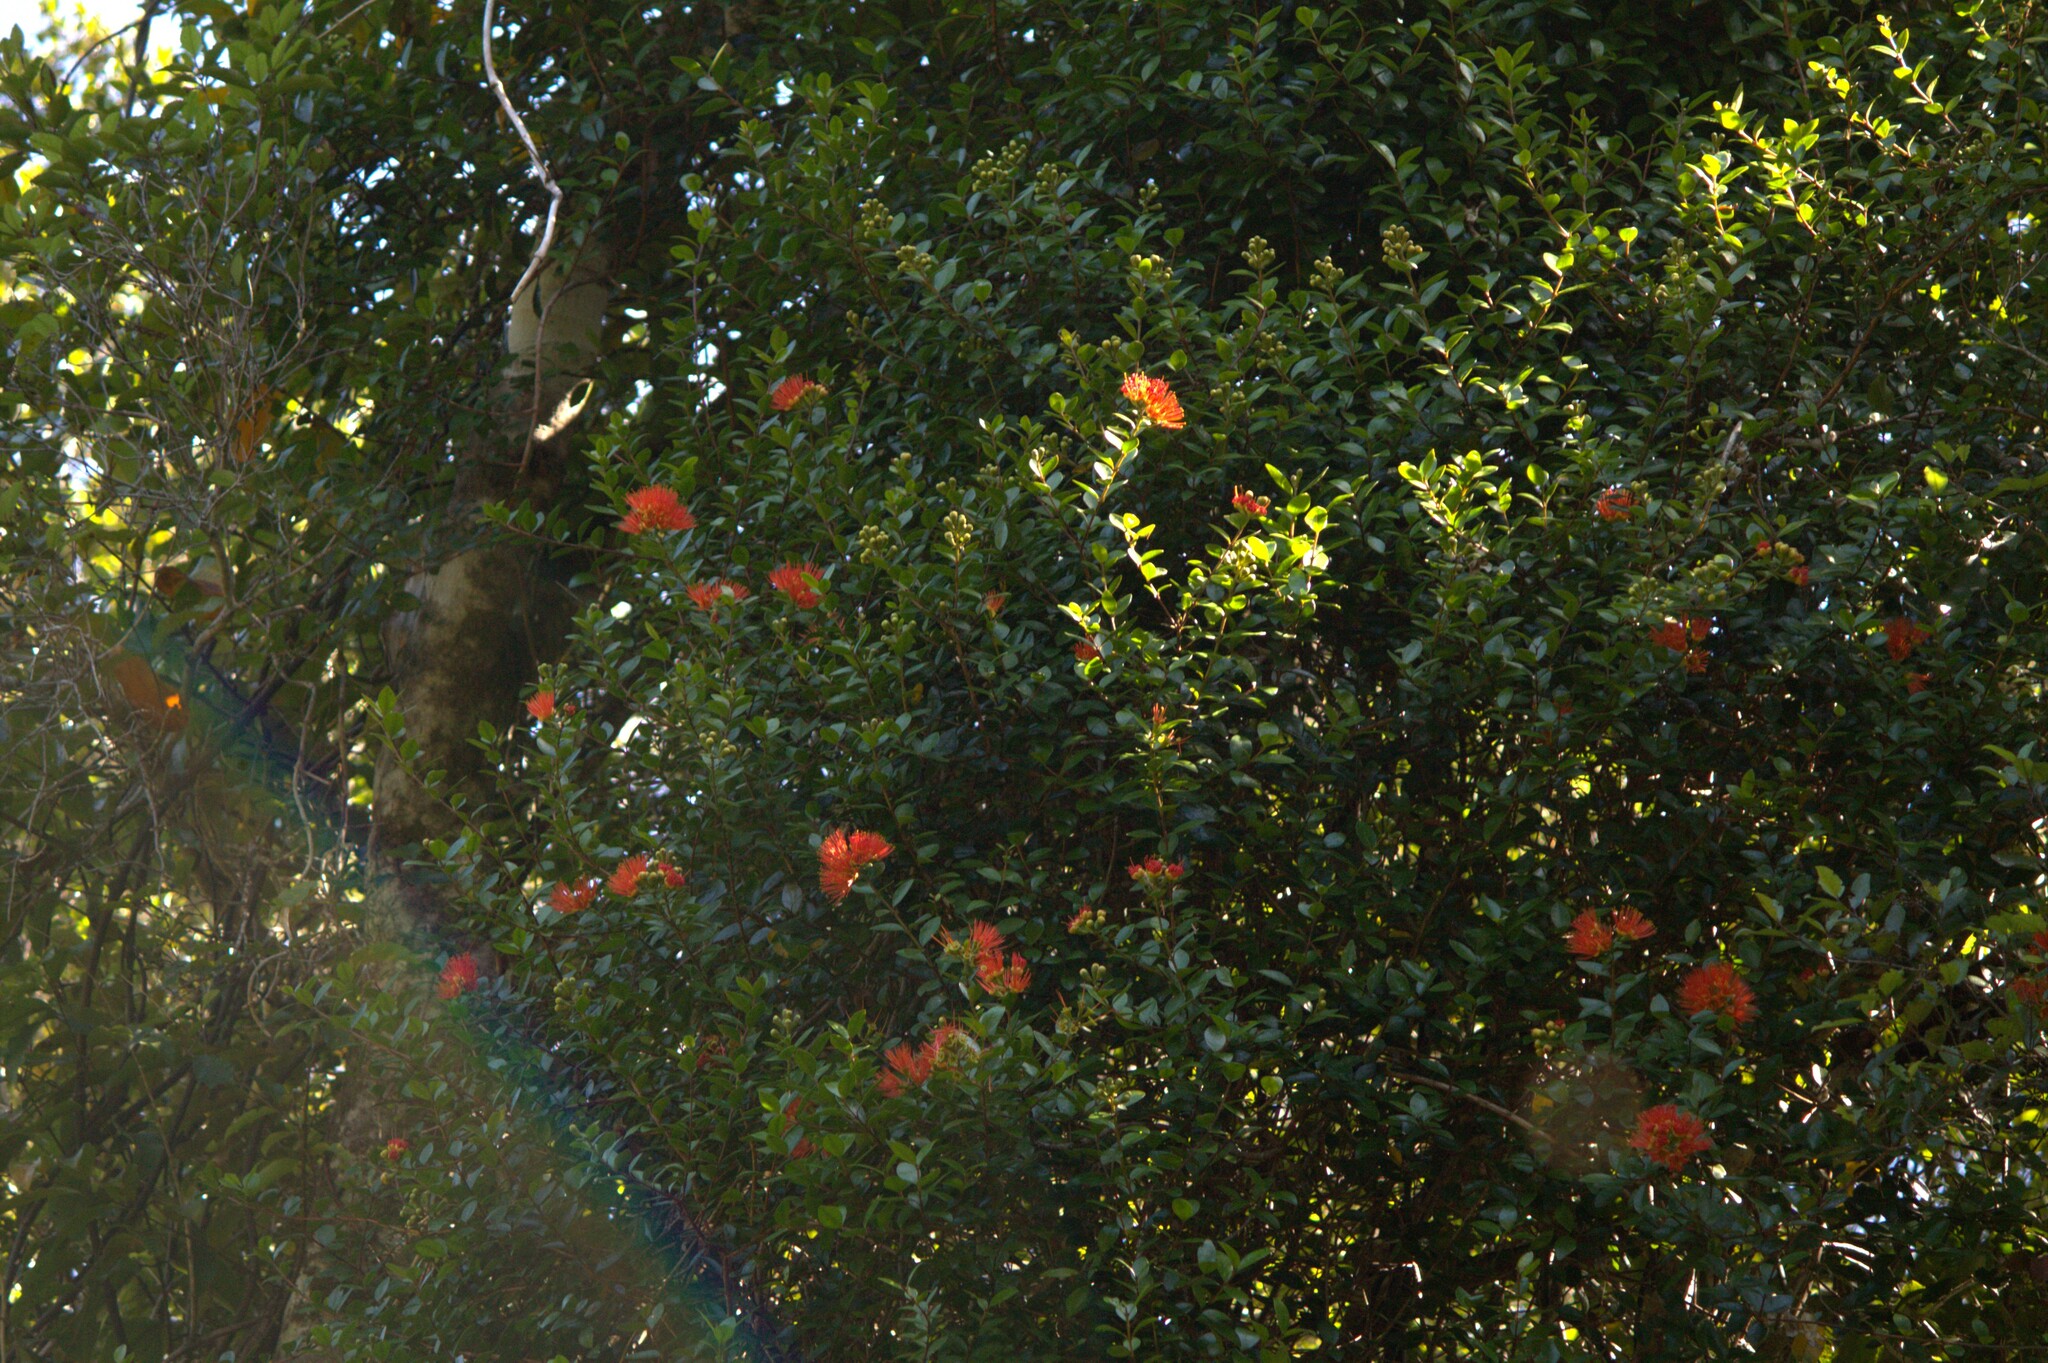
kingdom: Plantae
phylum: Tracheophyta
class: Magnoliopsida
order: Myrtales
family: Myrtaceae
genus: Metrosideros
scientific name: Metrosideros fulgens
